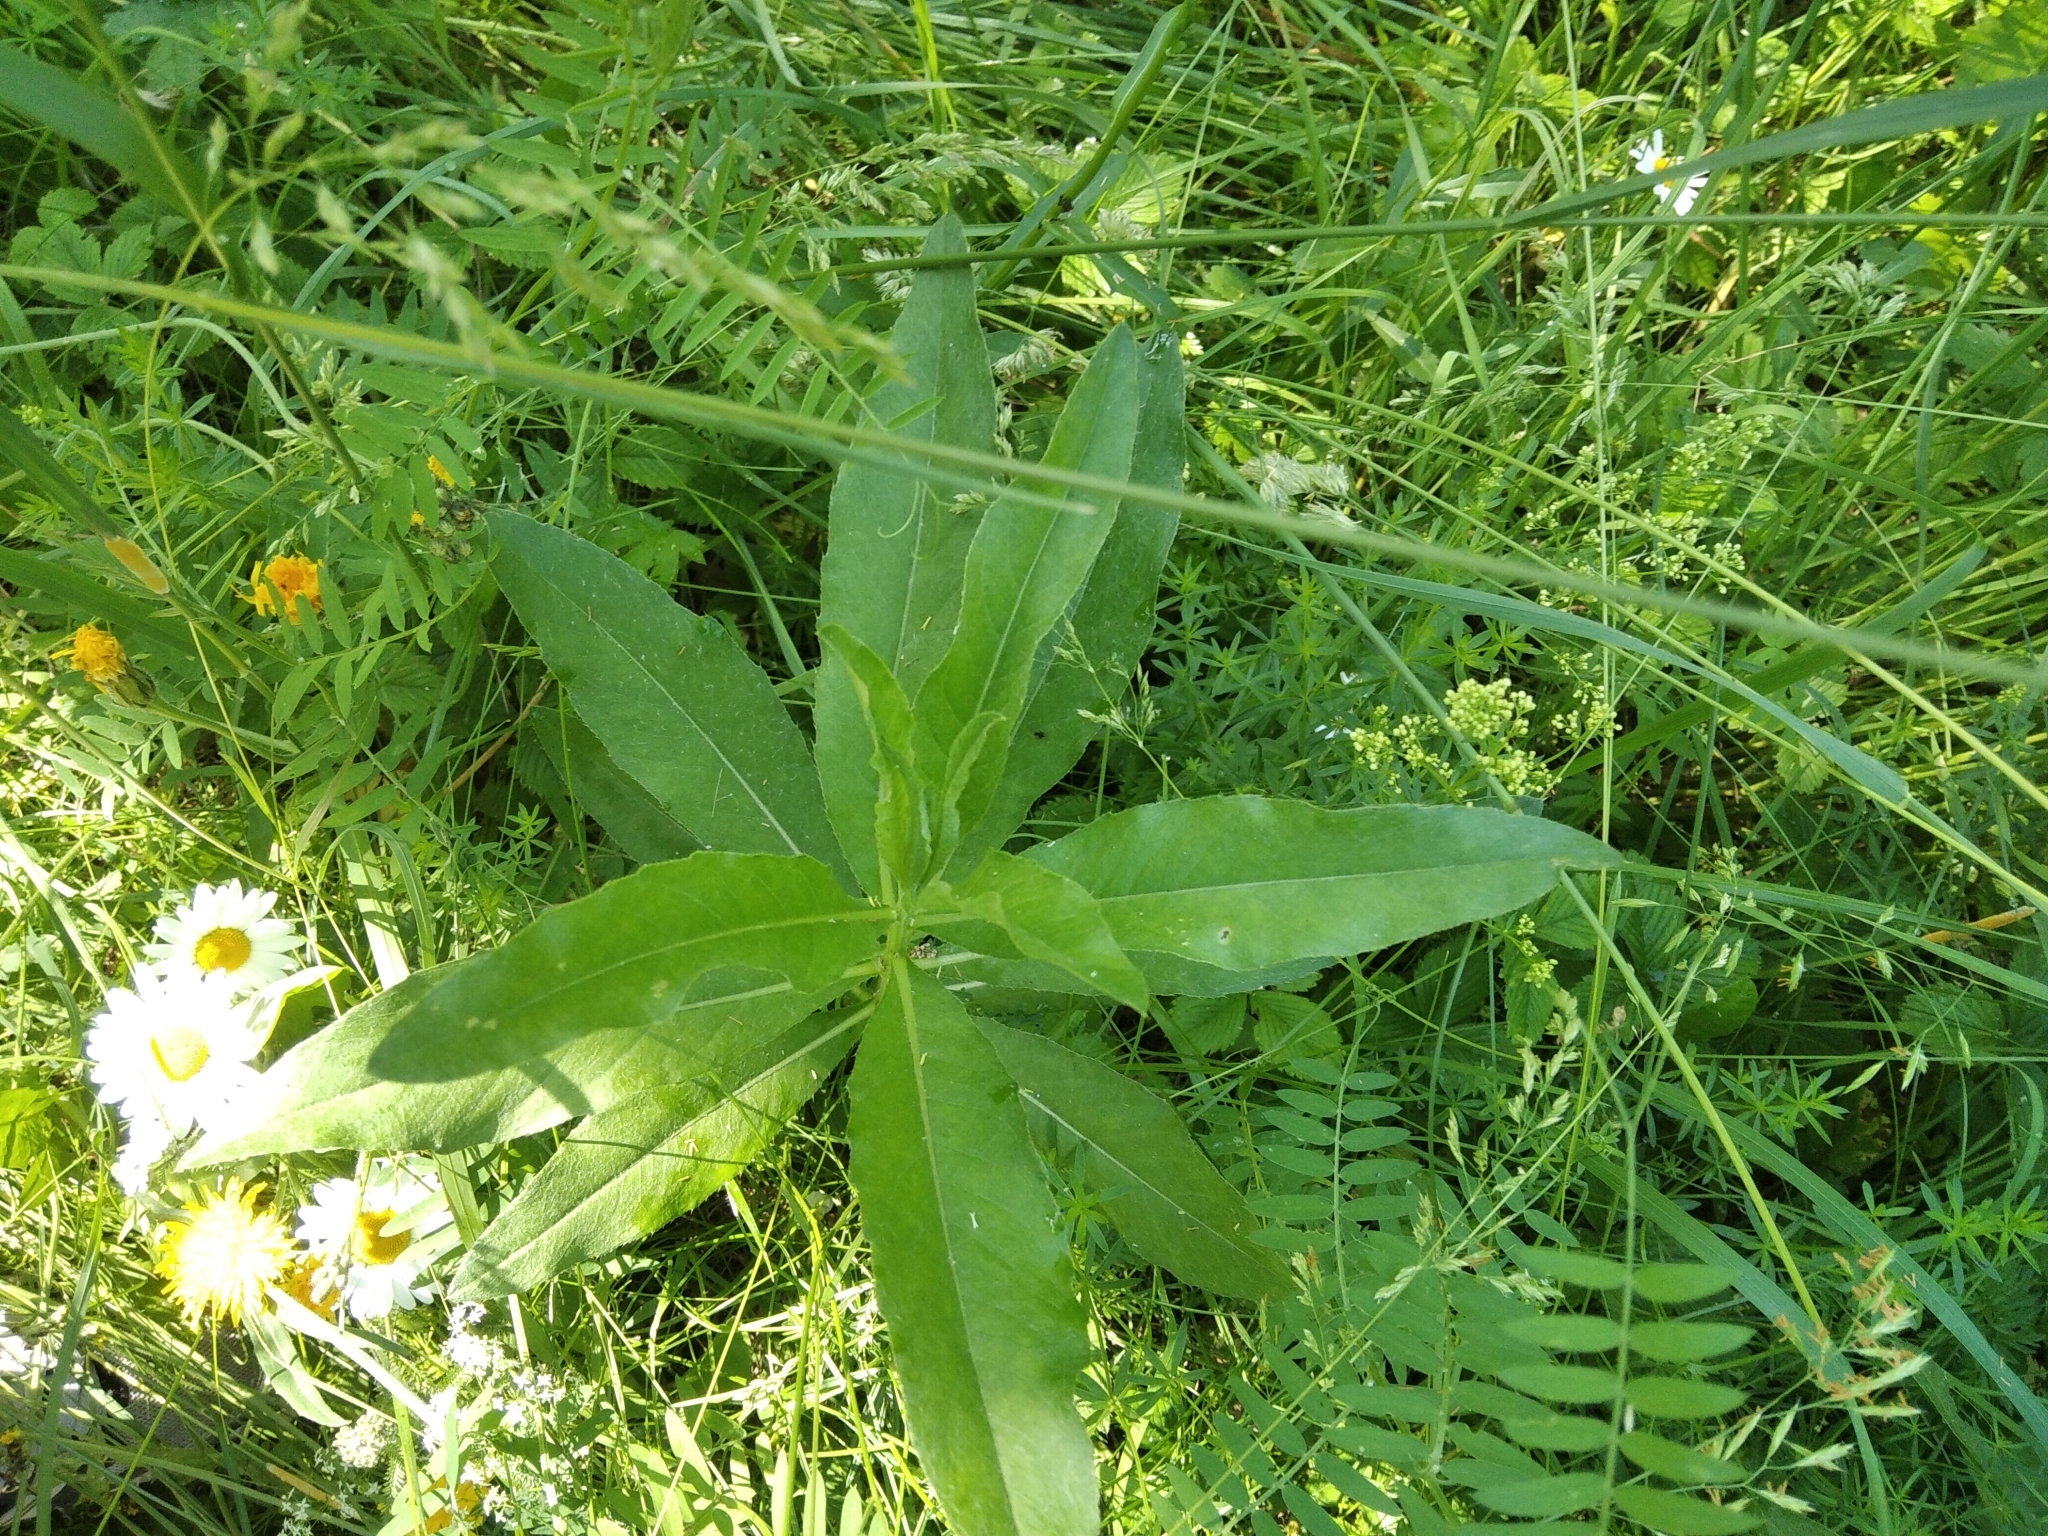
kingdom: Plantae
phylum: Tracheophyta
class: Magnoliopsida
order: Asterales
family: Asteraceae
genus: Cirsium
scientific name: Cirsium arvense
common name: Creeping thistle
